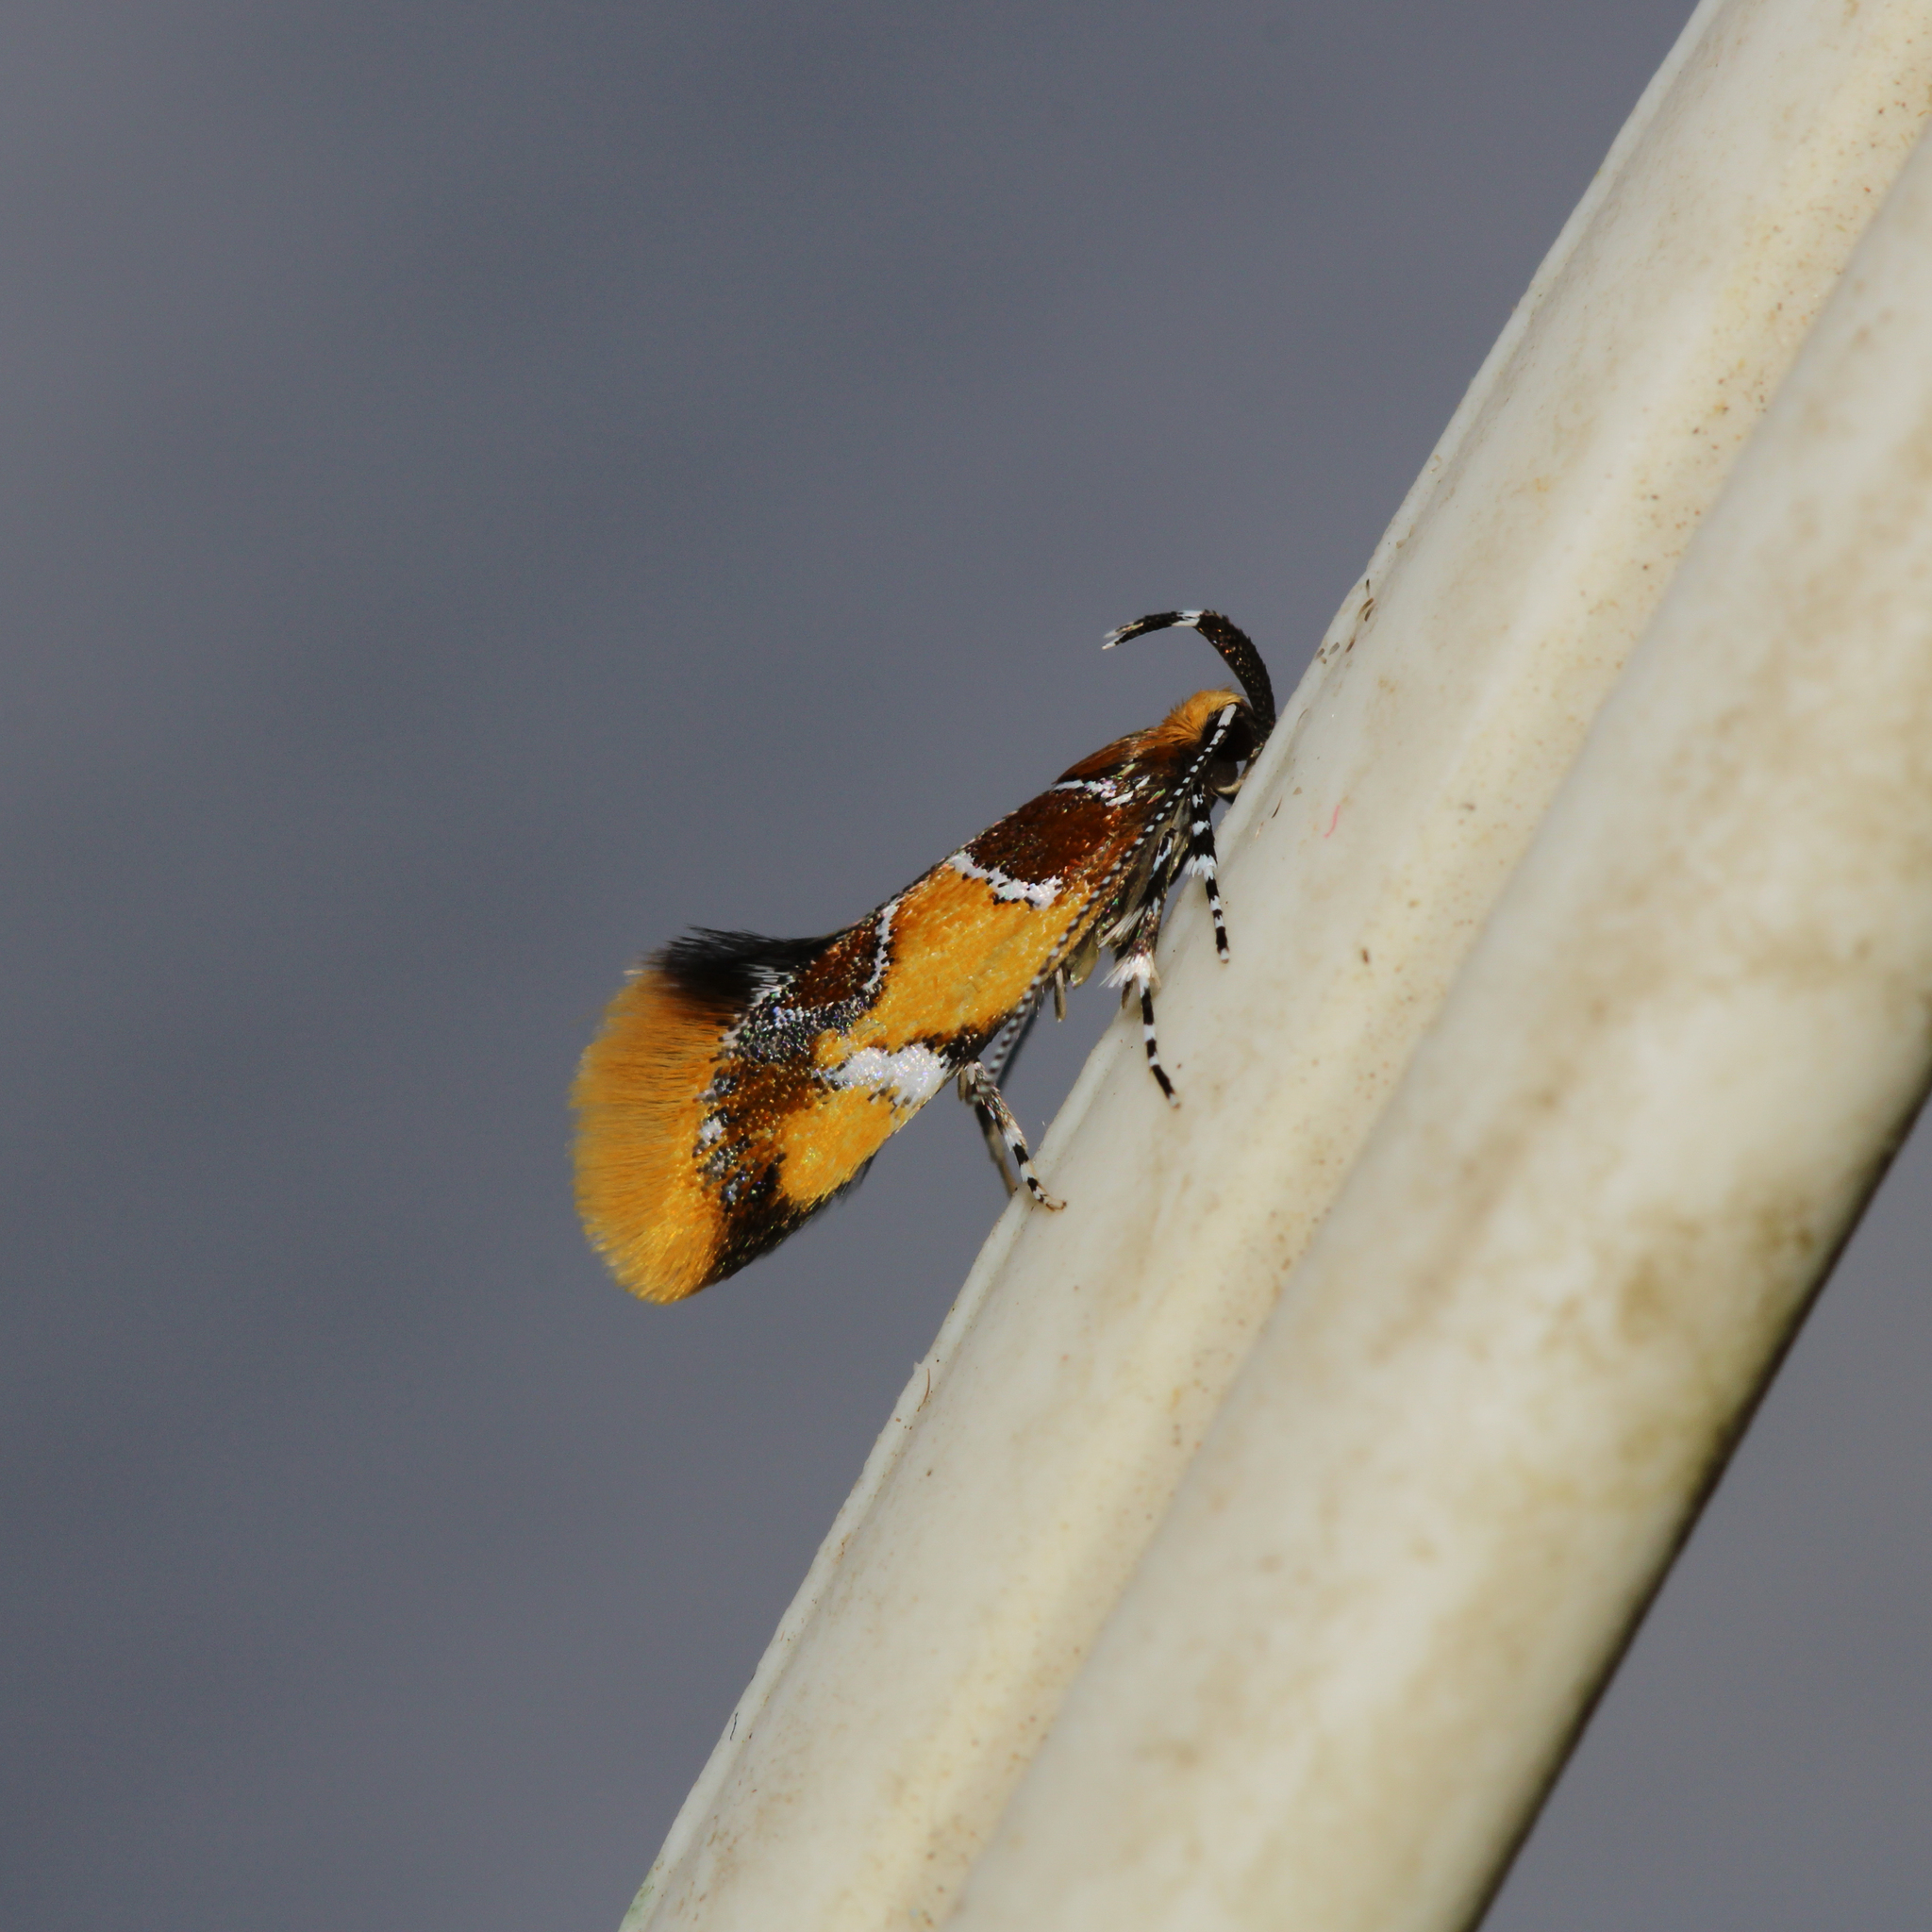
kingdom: Animalia
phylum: Arthropoda
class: Insecta
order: Lepidoptera
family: Oecophoridae
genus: Callima
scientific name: Callima argenticinctella
